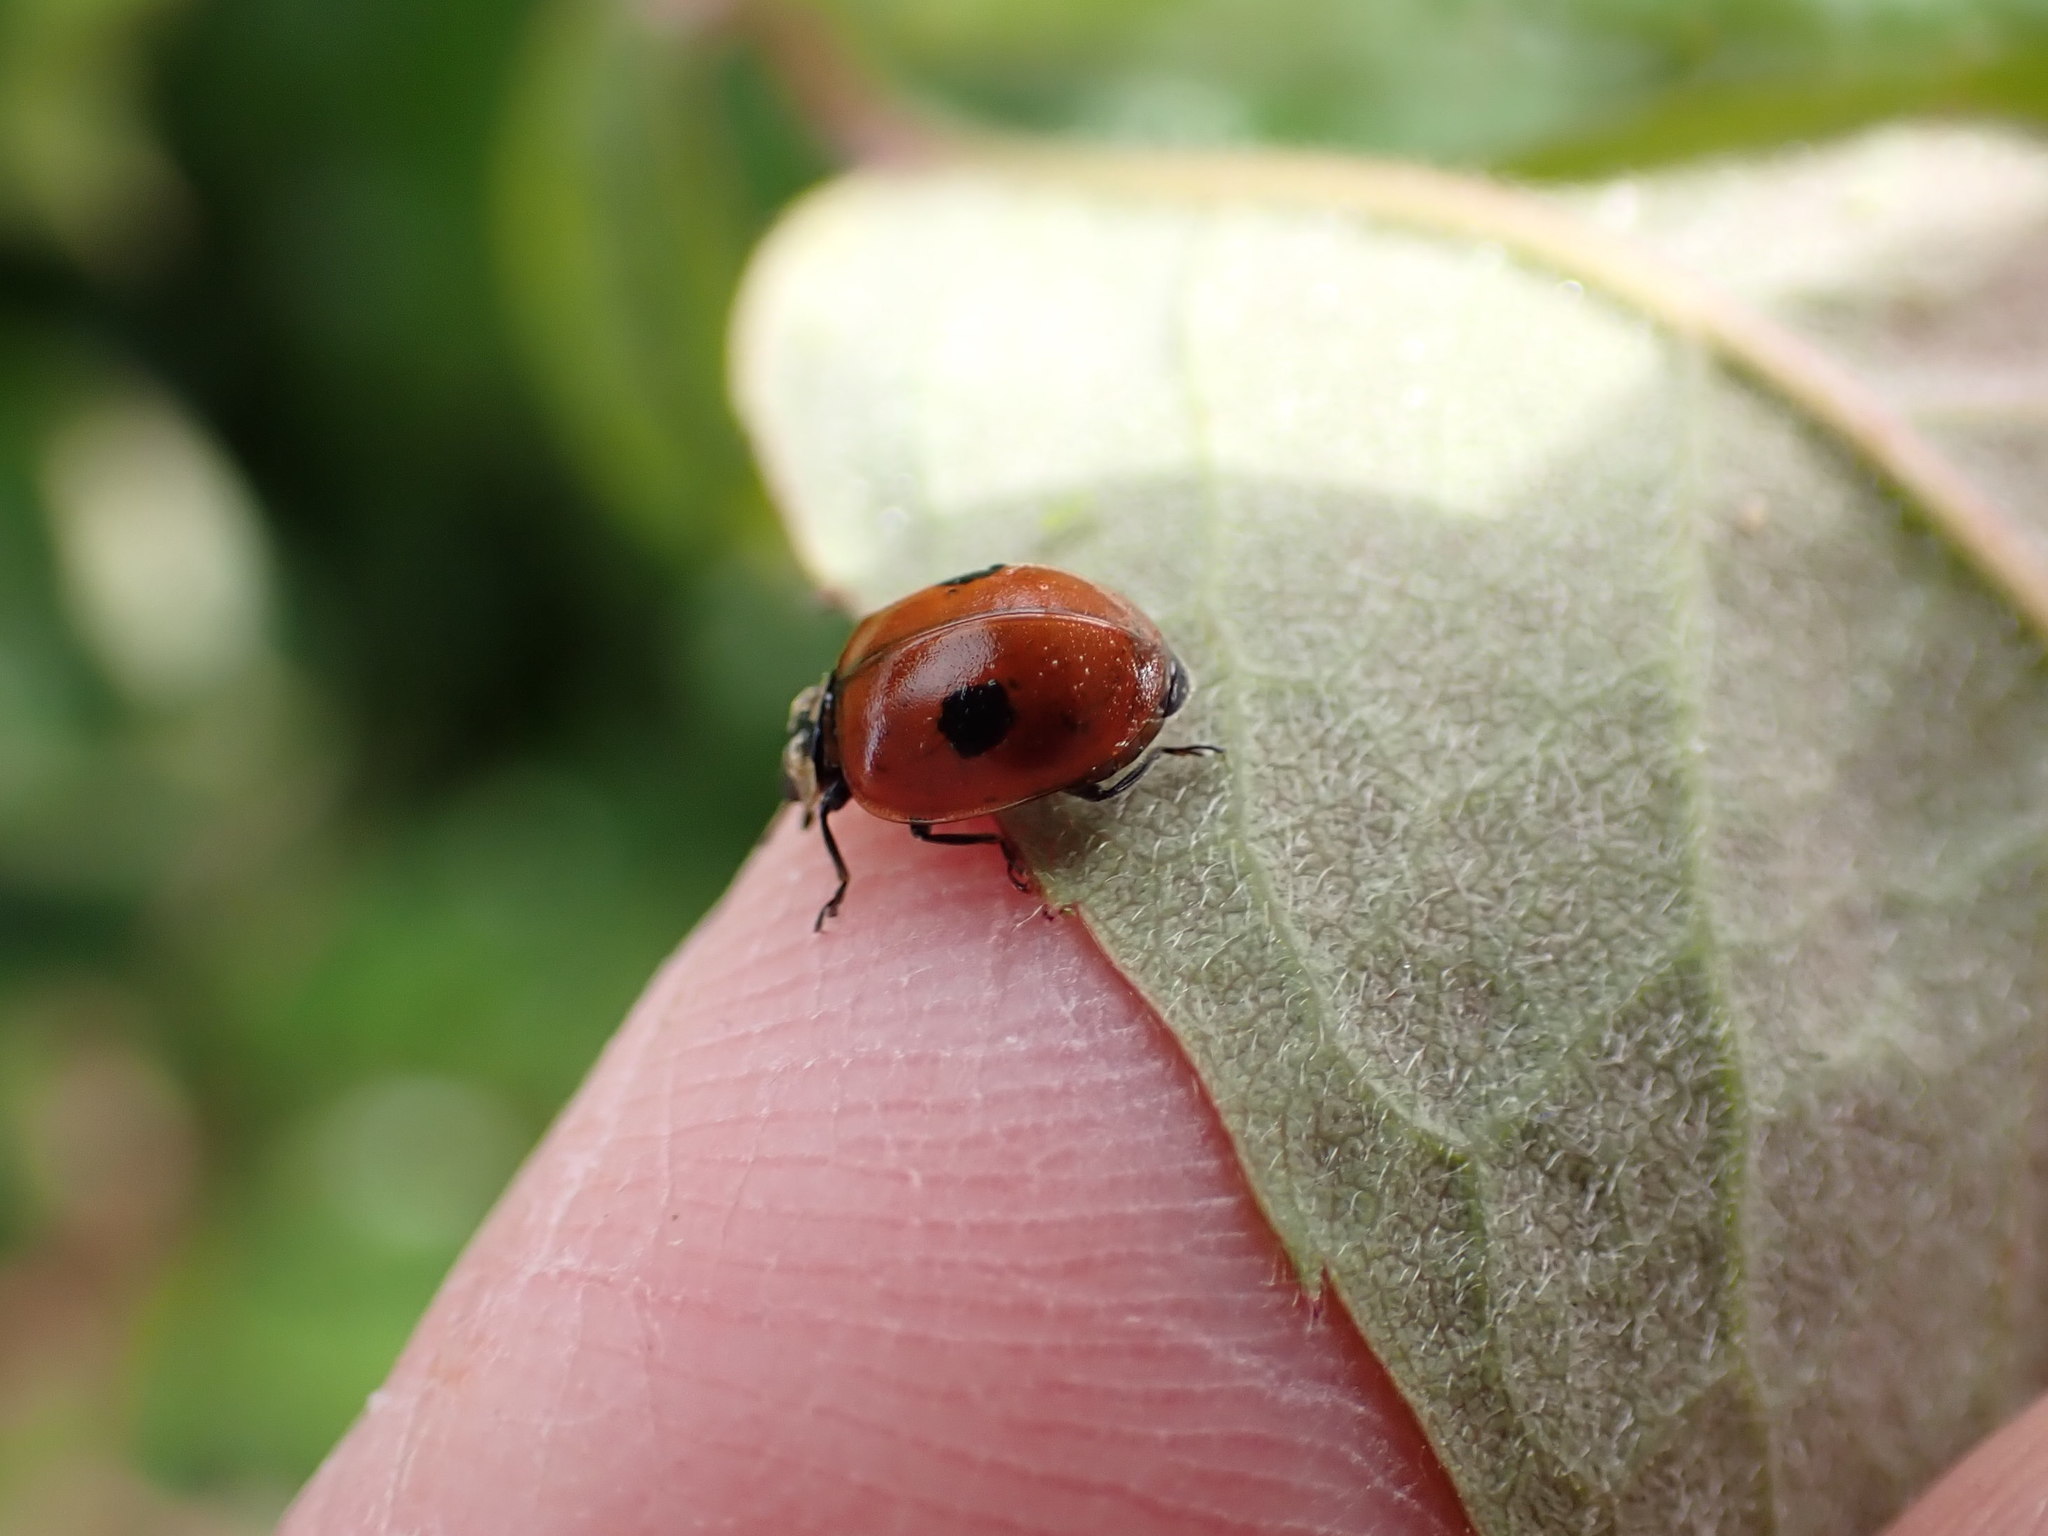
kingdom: Animalia
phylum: Arthropoda
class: Insecta
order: Coleoptera
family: Coccinellidae
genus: Adalia
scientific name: Adalia bipunctata
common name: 2-spot ladybird
